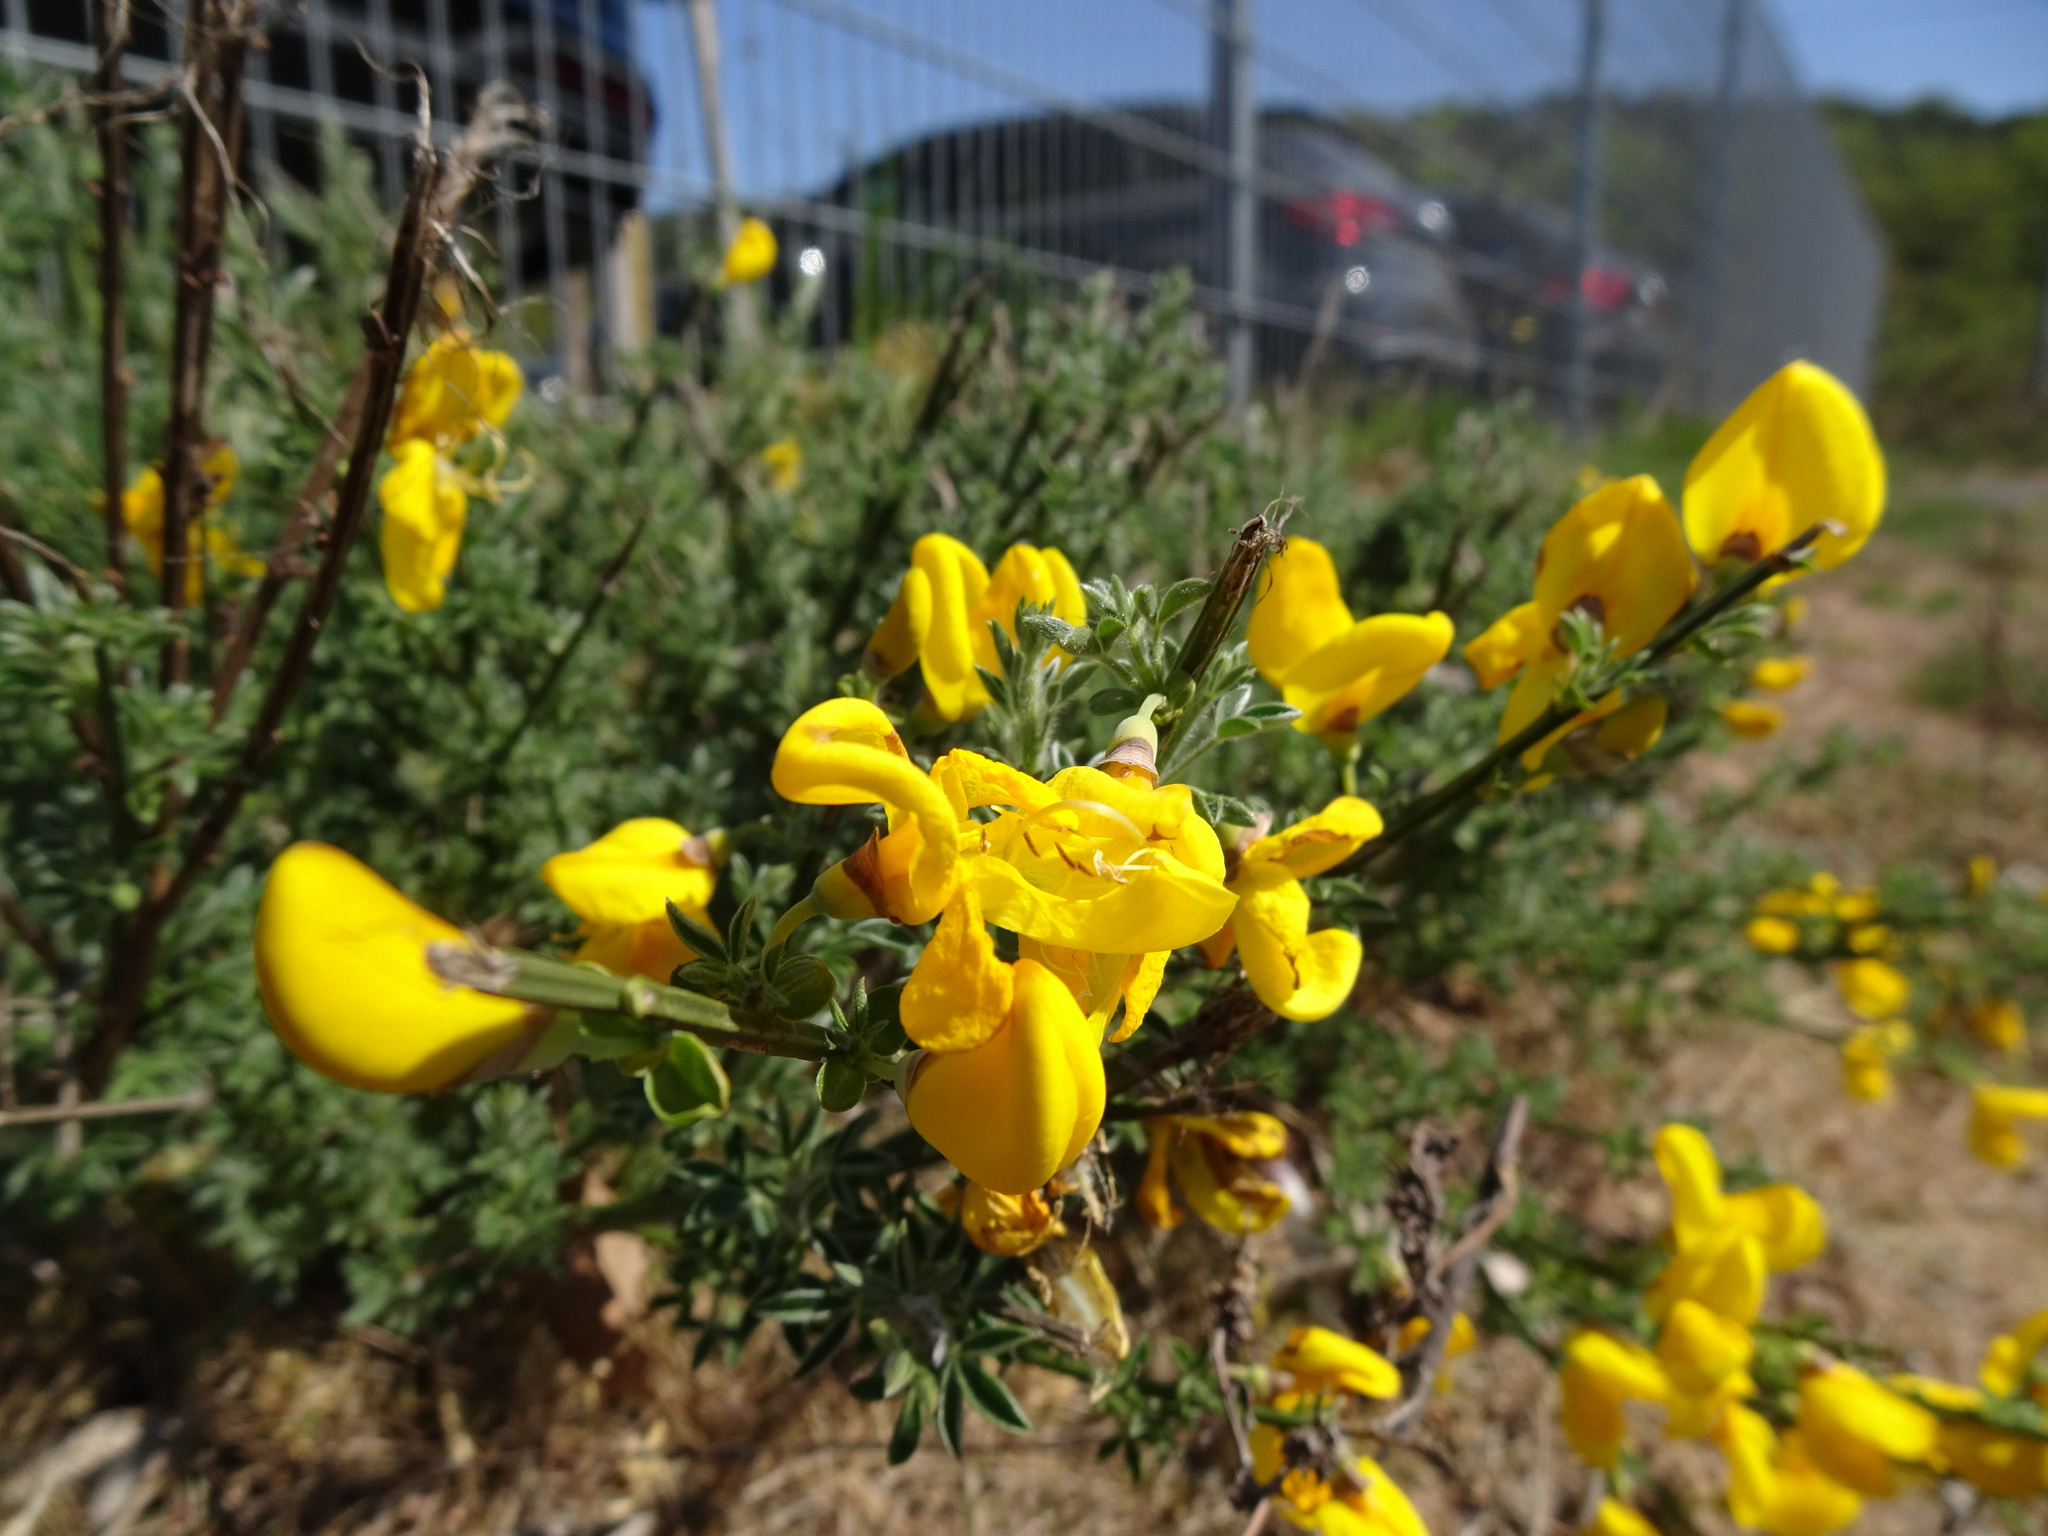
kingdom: Plantae
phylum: Tracheophyta
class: Magnoliopsida
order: Fabales
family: Fabaceae
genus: Cytisus
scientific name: Cytisus scoparius
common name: Scotch broom
